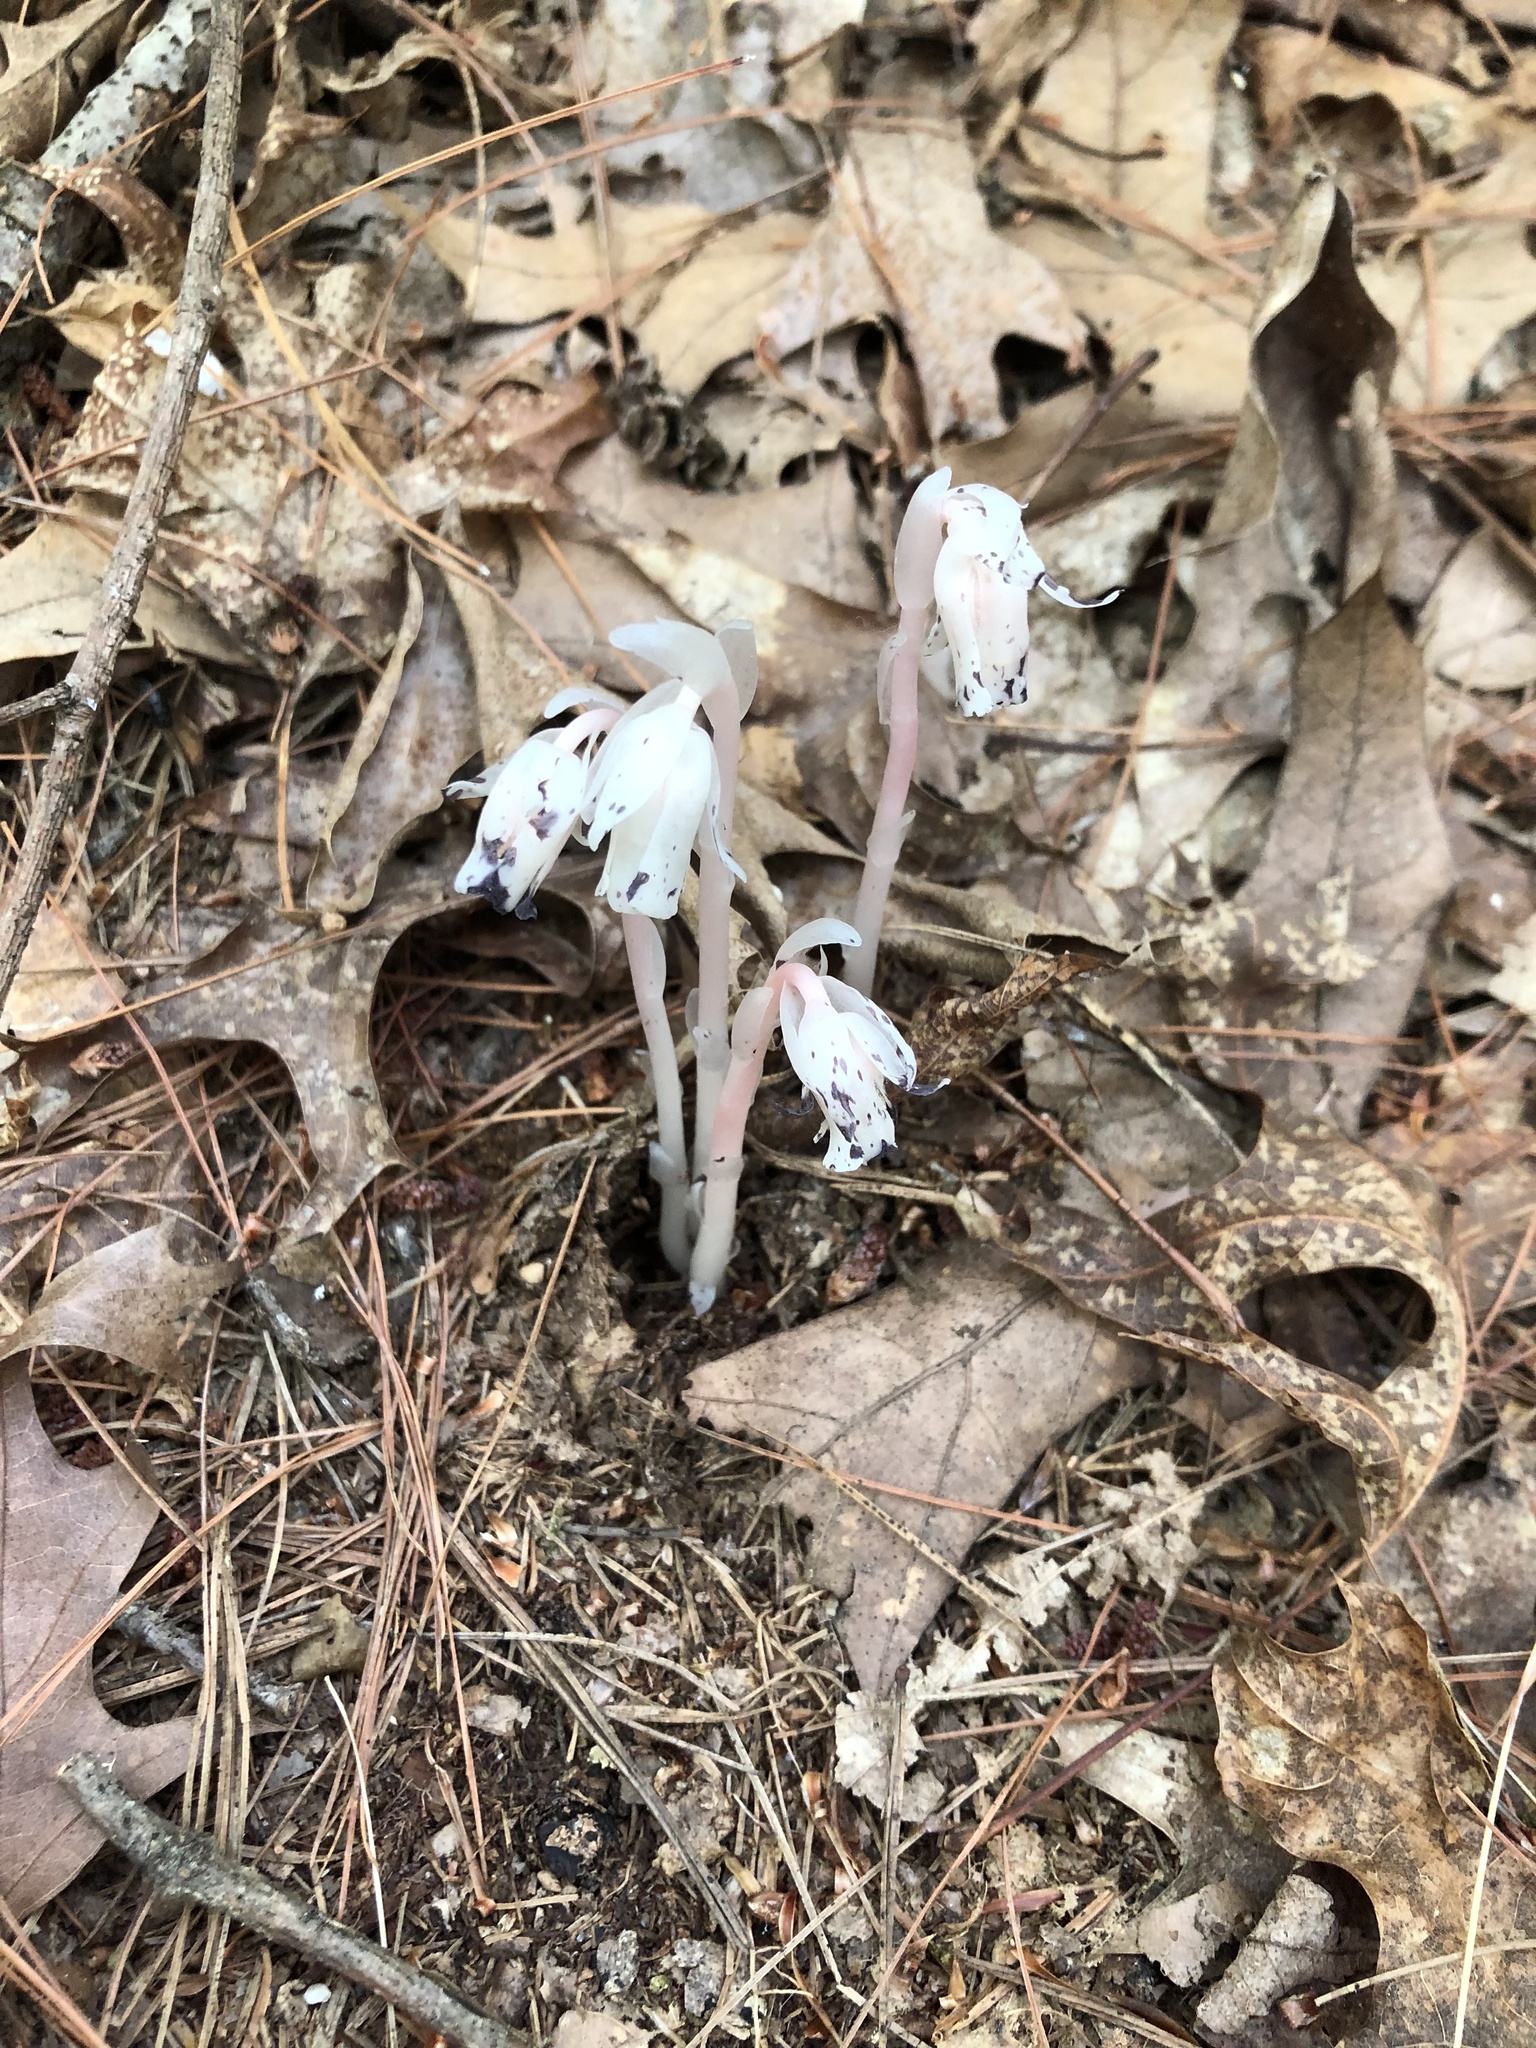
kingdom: Plantae
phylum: Tracheophyta
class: Magnoliopsida
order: Ericales
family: Ericaceae
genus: Monotropa
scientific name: Monotropa uniflora
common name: Convulsion root
